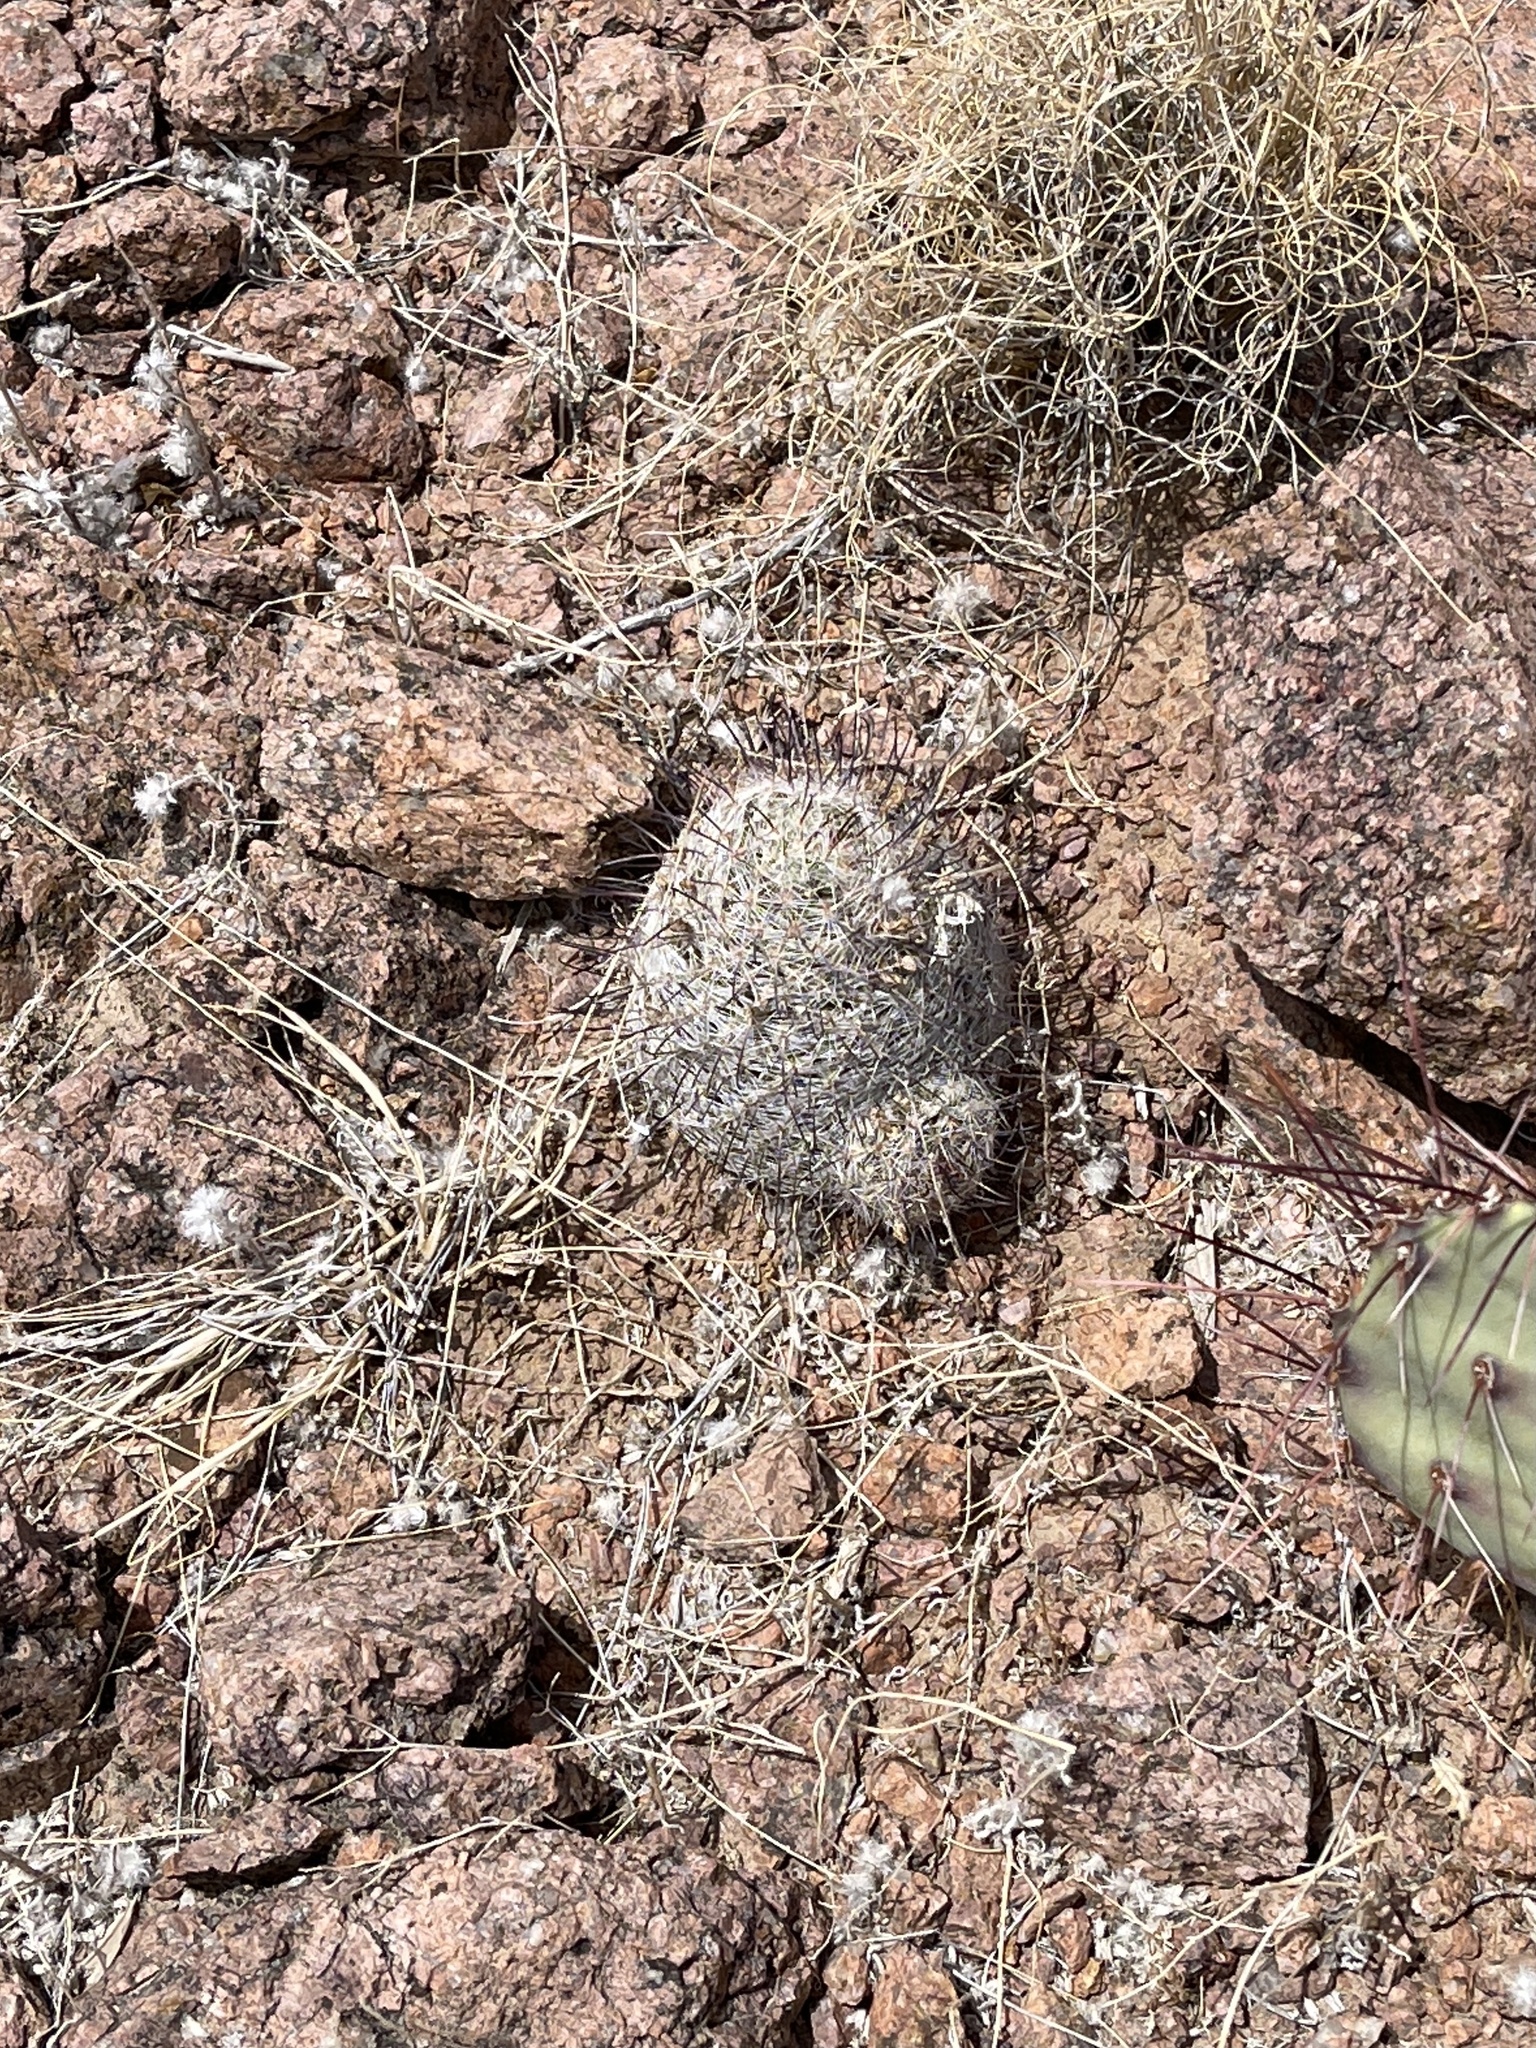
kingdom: Plantae
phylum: Tracheophyta
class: Magnoliopsida
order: Caryophyllales
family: Cactaceae
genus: Cochemiea
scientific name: Cochemiea grahamii
